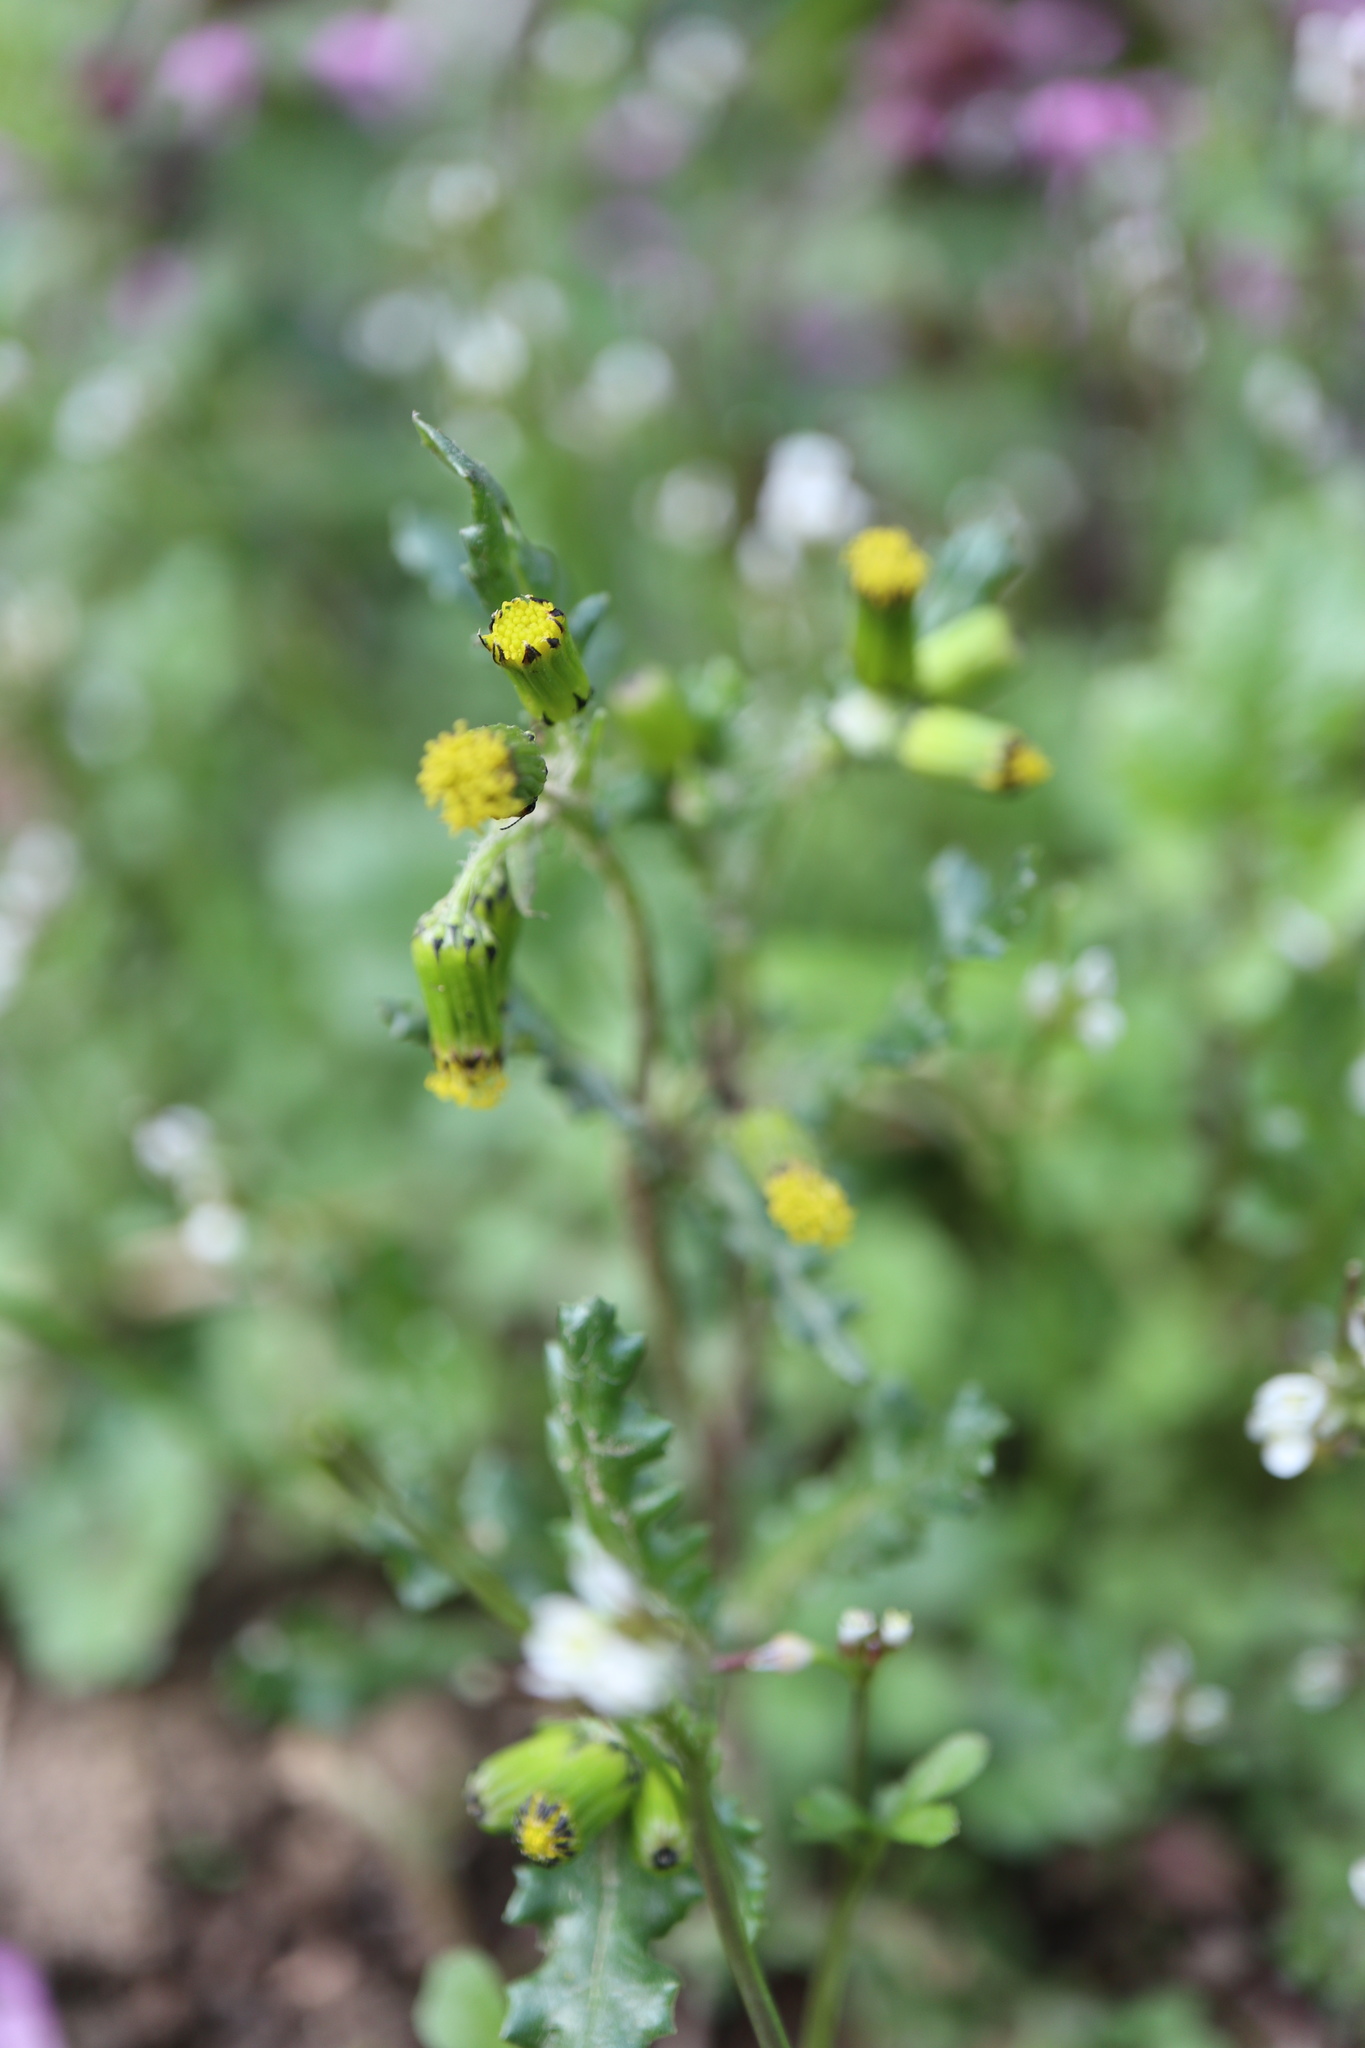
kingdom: Plantae
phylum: Tracheophyta
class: Magnoliopsida
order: Asterales
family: Asteraceae
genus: Senecio
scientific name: Senecio vulgaris
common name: Old-man-in-the-spring
